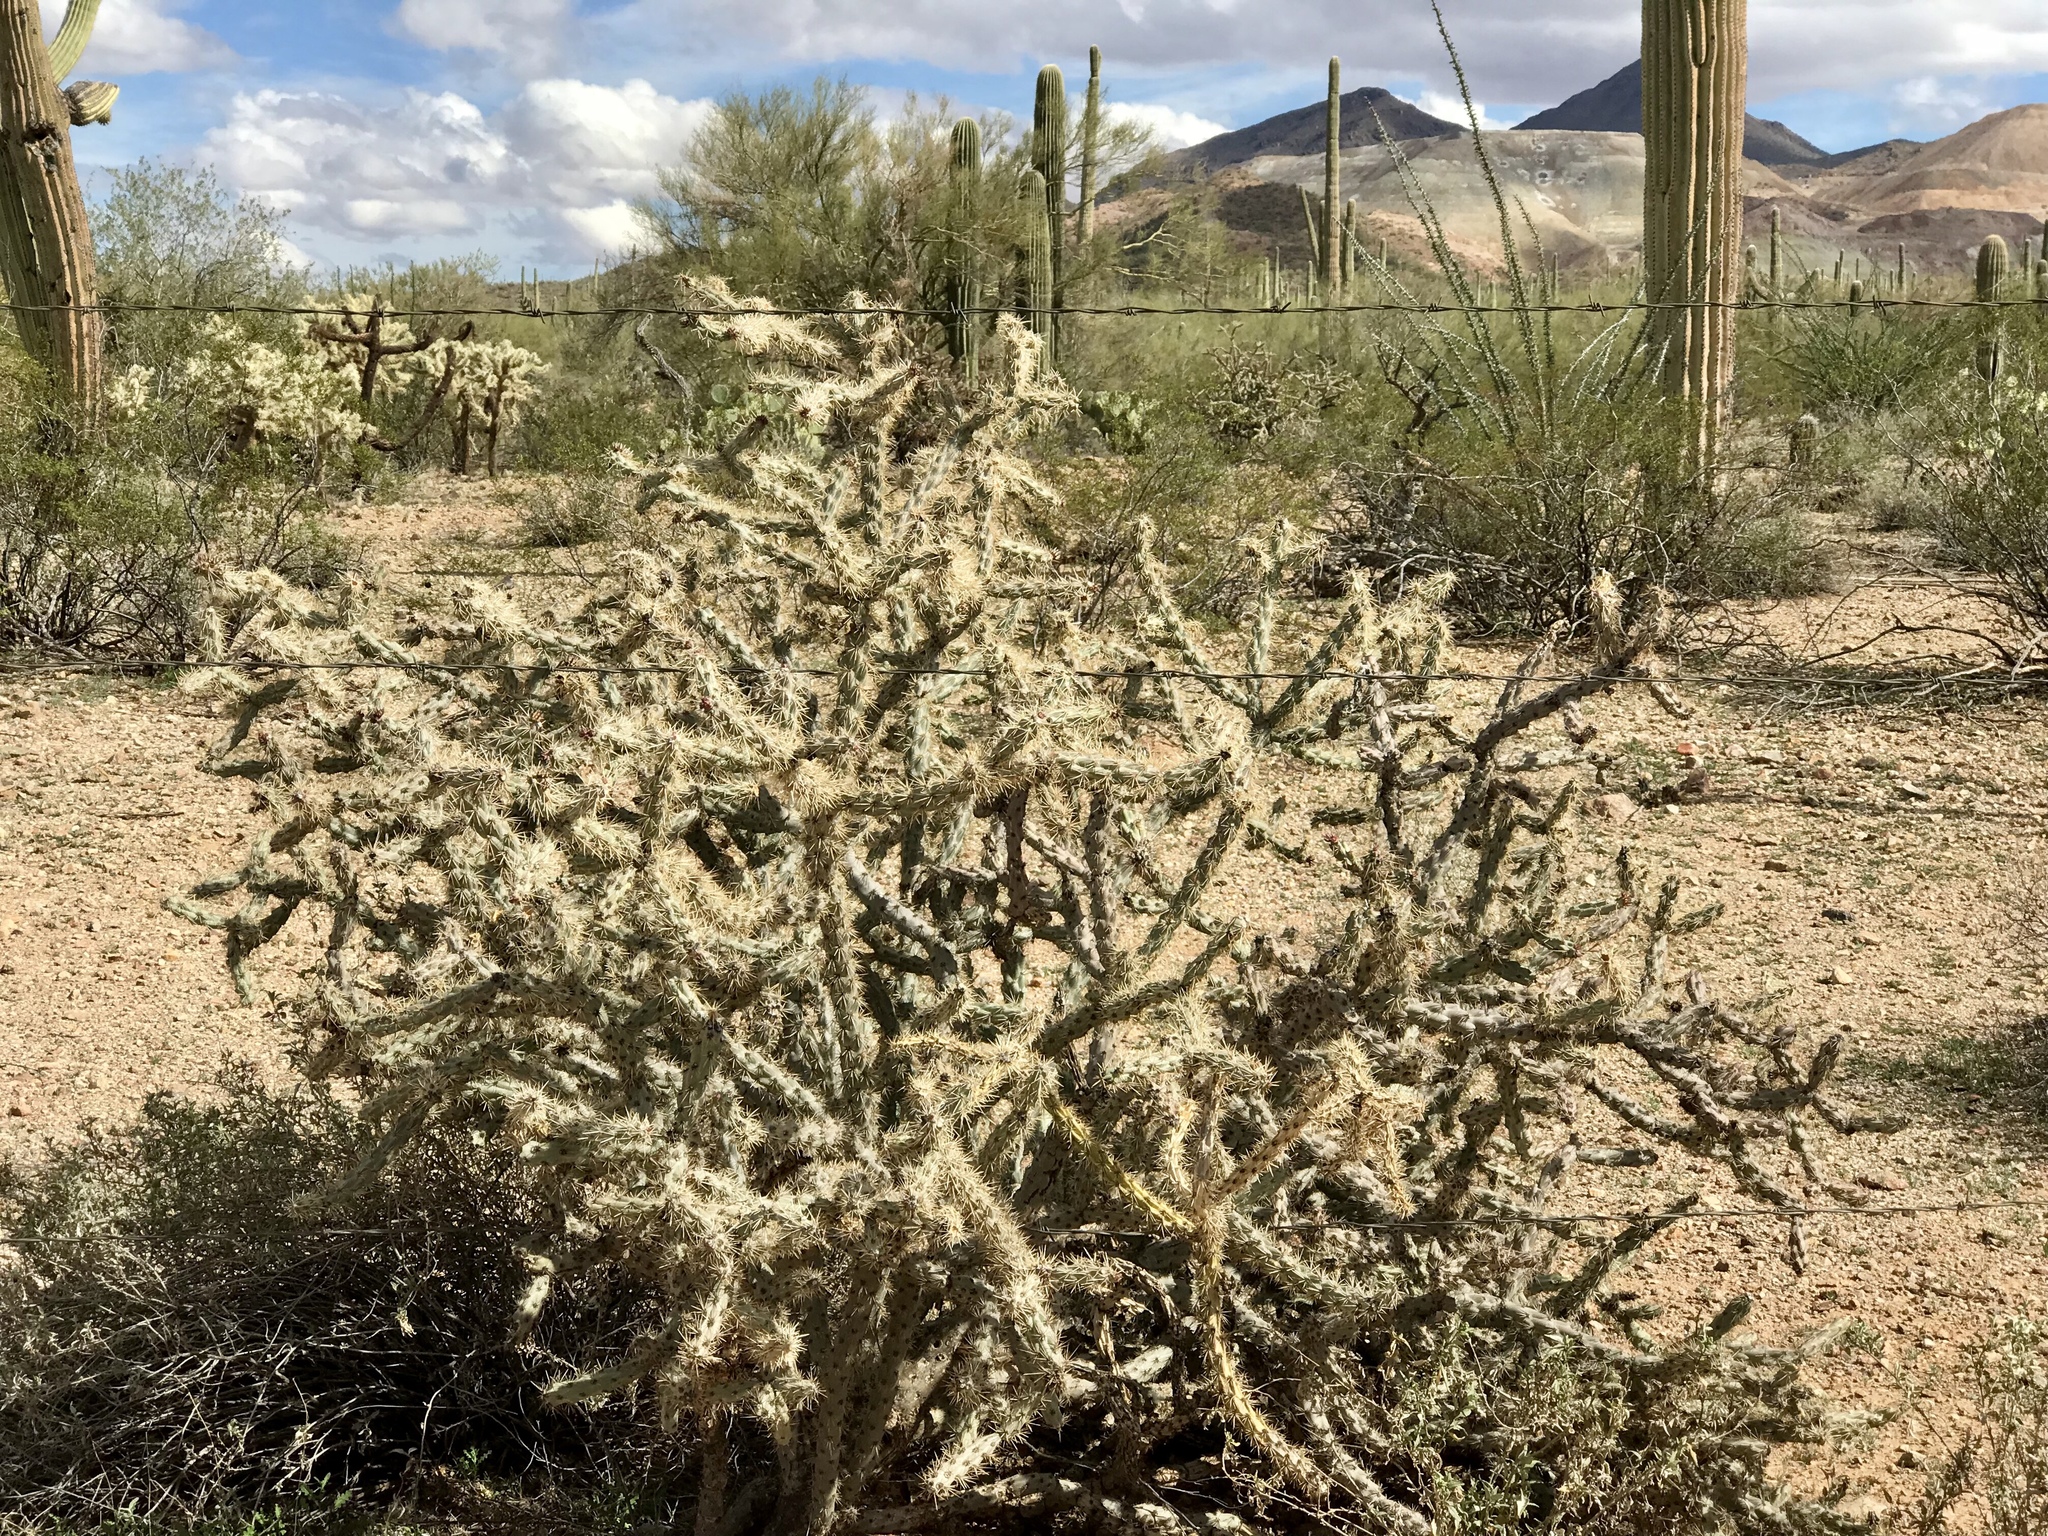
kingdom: Plantae
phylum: Tracheophyta
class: Magnoliopsida
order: Caryophyllales
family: Cactaceae
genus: Cylindropuntia
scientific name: Cylindropuntia acanthocarpa
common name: Buckhorn cholla
